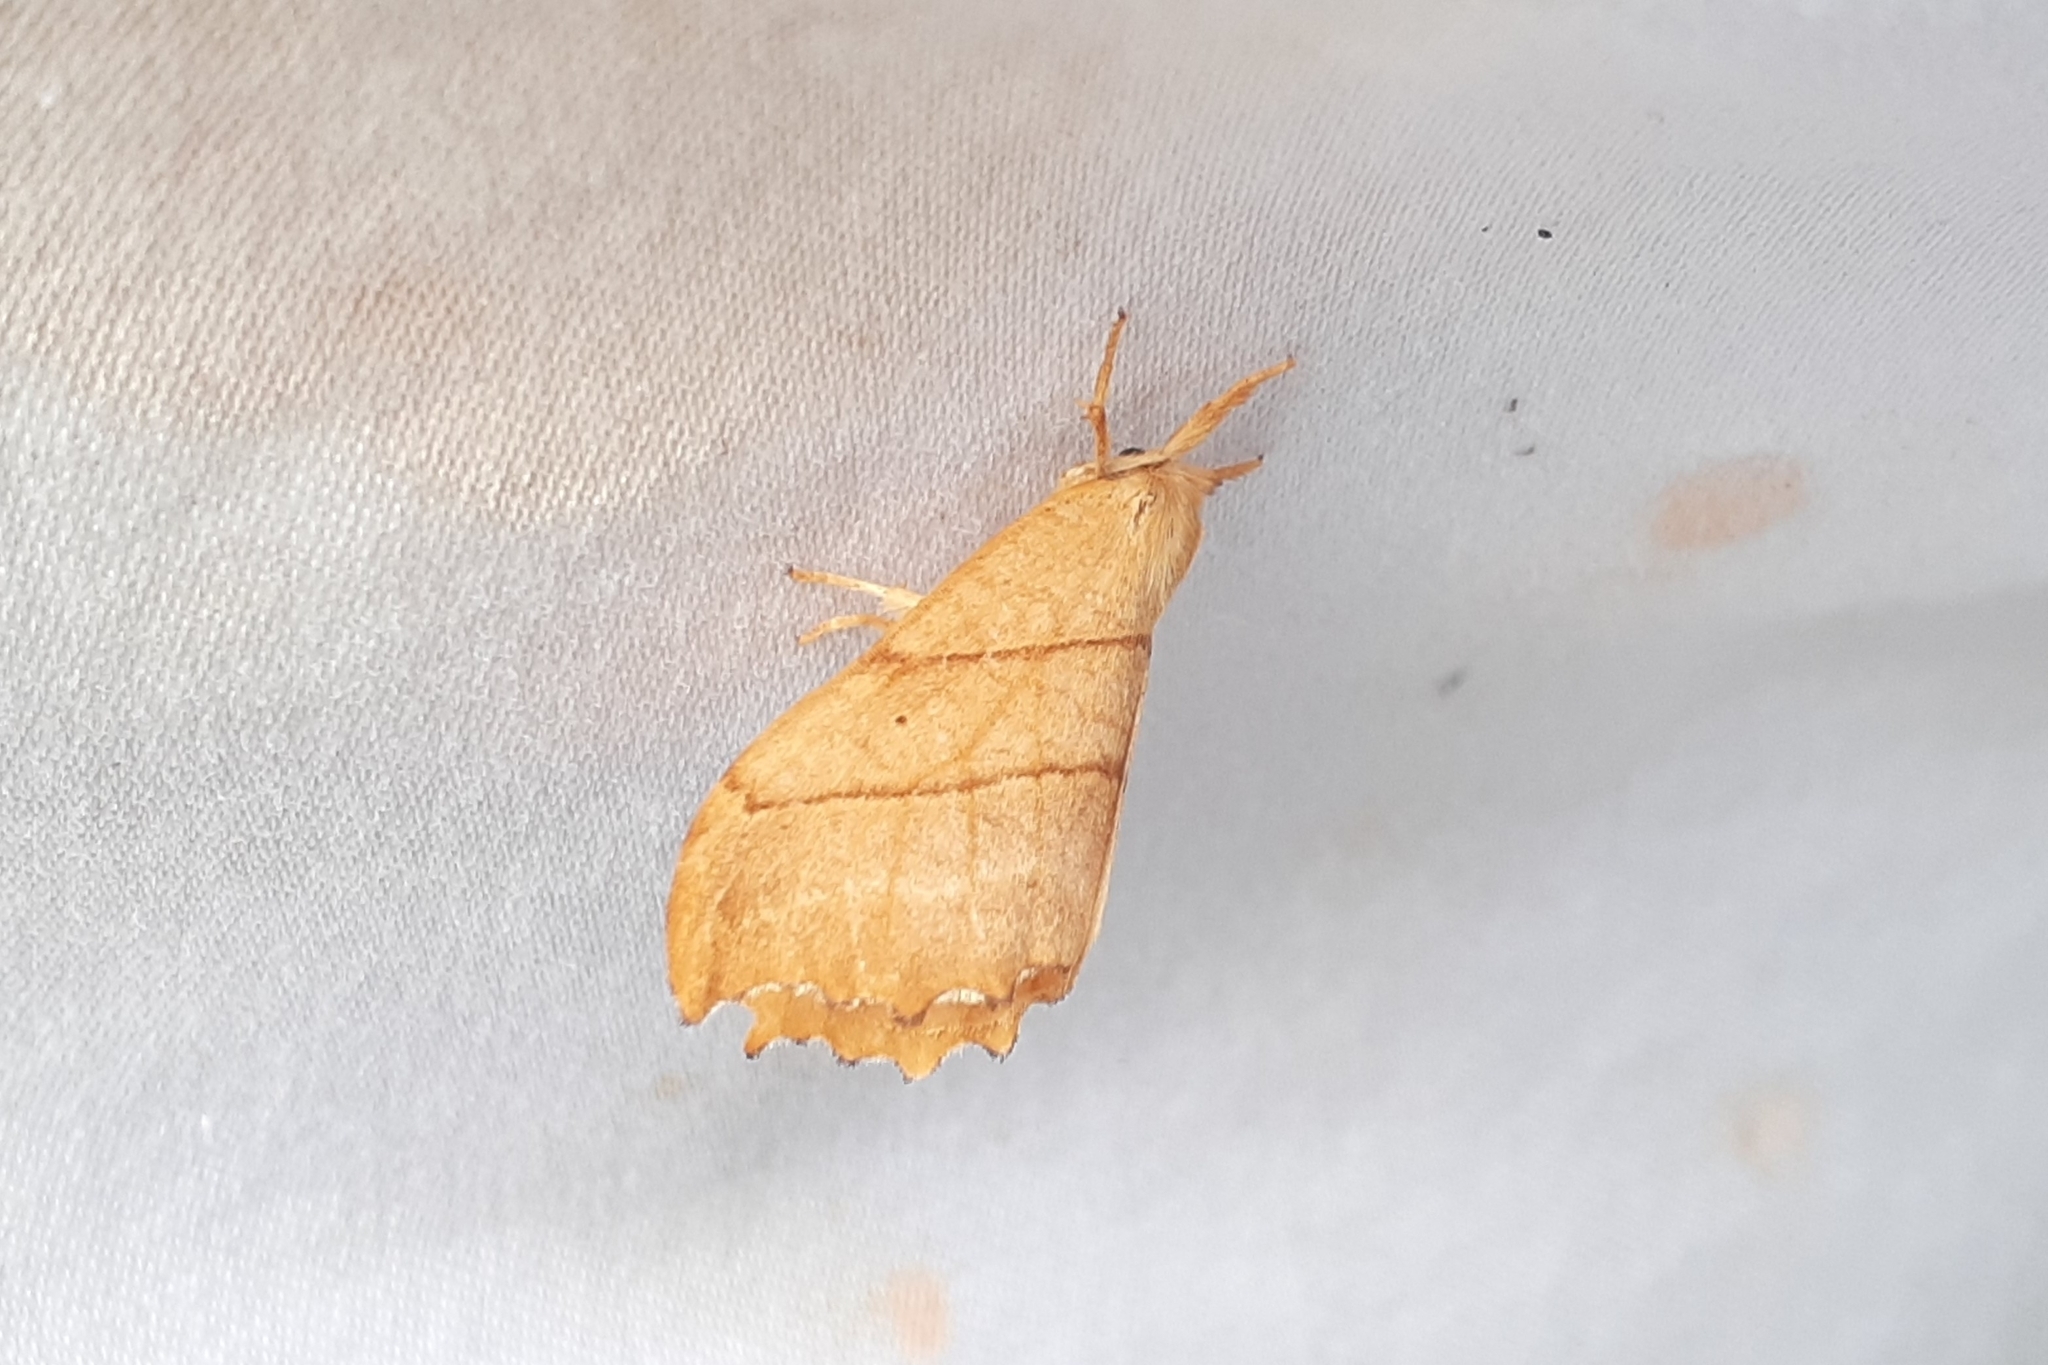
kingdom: Animalia
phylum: Arthropoda
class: Insecta
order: Lepidoptera
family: Drepanidae
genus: Falcaria
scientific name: Falcaria bilineata
